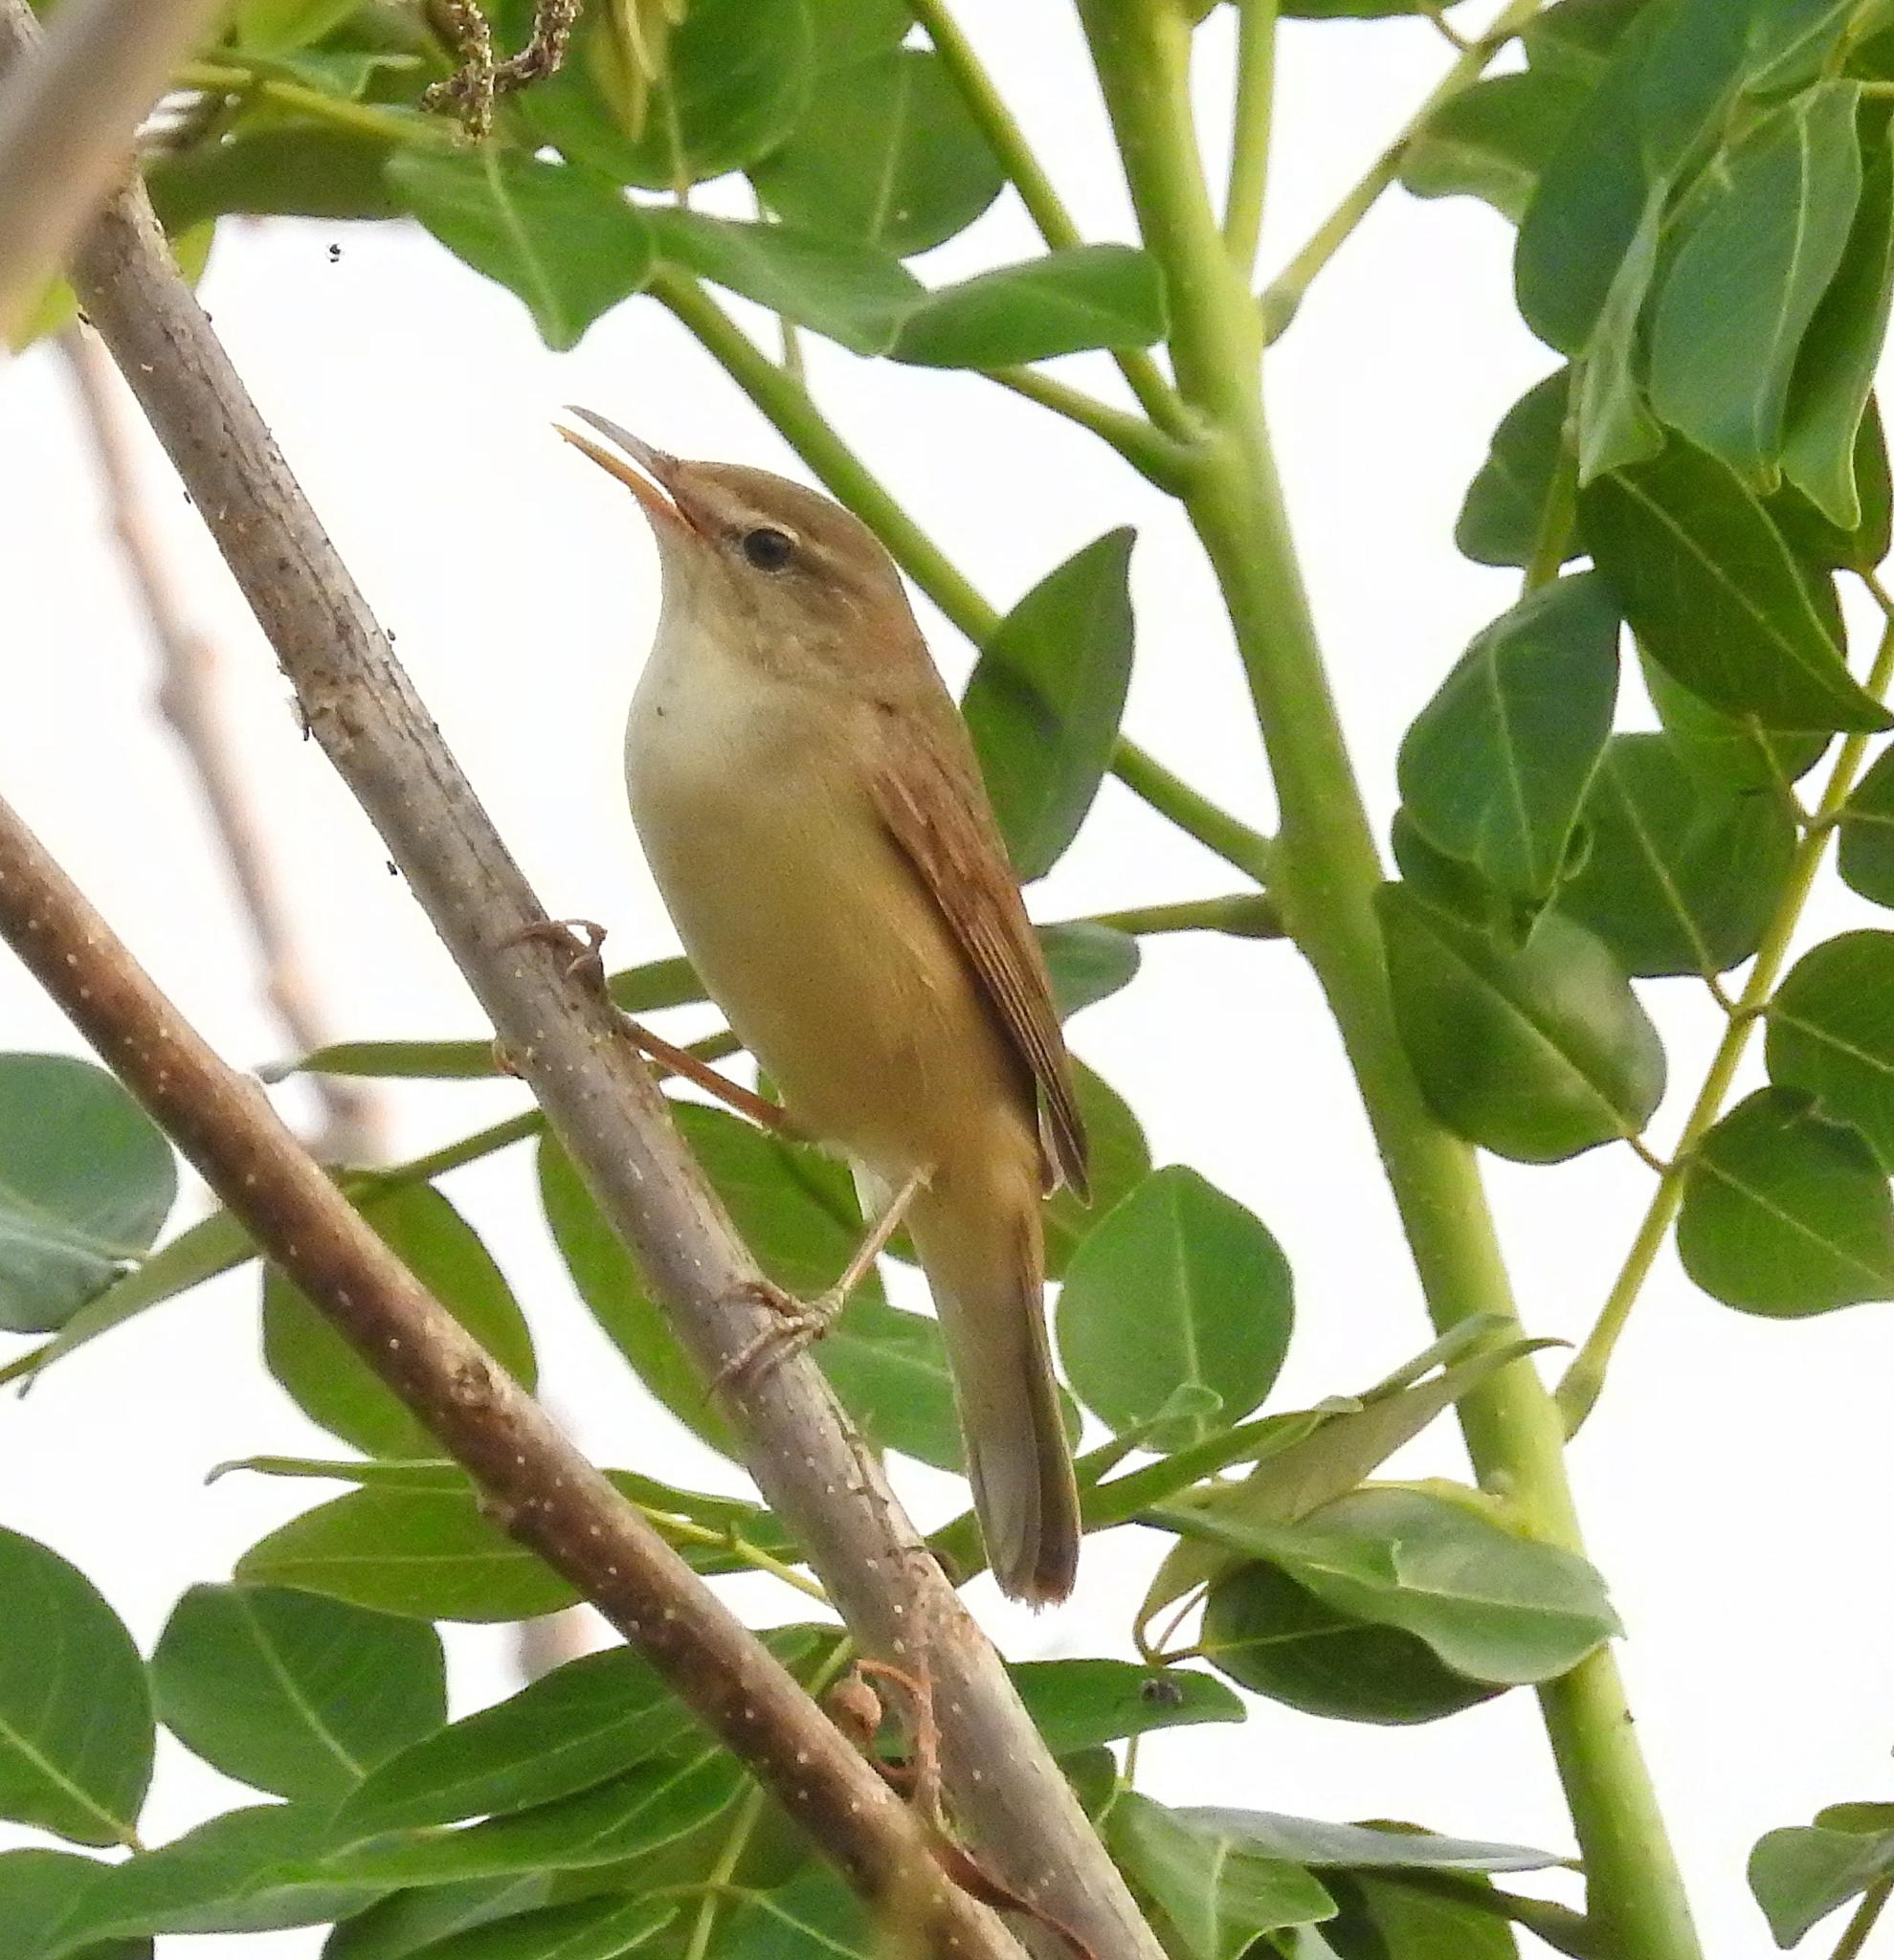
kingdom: Animalia
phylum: Chordata
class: Aves
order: Passeriformes
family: Acrocephalidae
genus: Iduna
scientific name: Iduna rama
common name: Sykes's warbler
